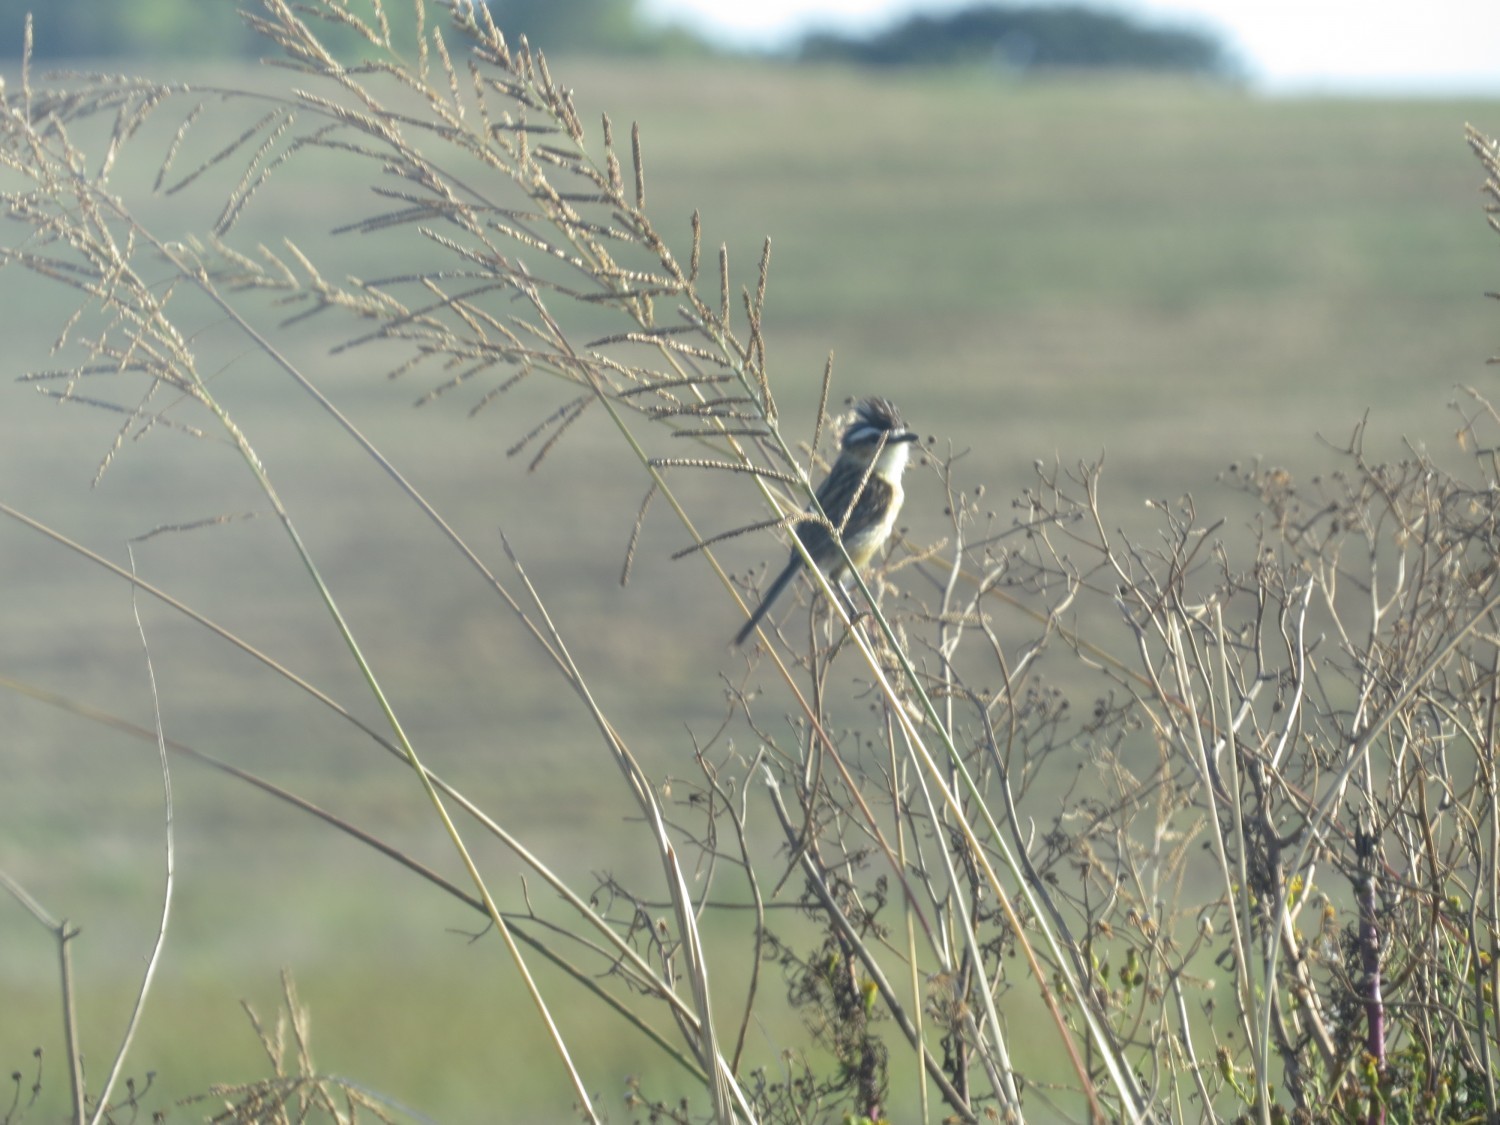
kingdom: Animalia
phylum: Chordata
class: Aves
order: Passeriformes
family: Tyrannidae
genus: Culicivora
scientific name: Culicivora caudacuta
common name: Sharp-tailed grass tyrant
